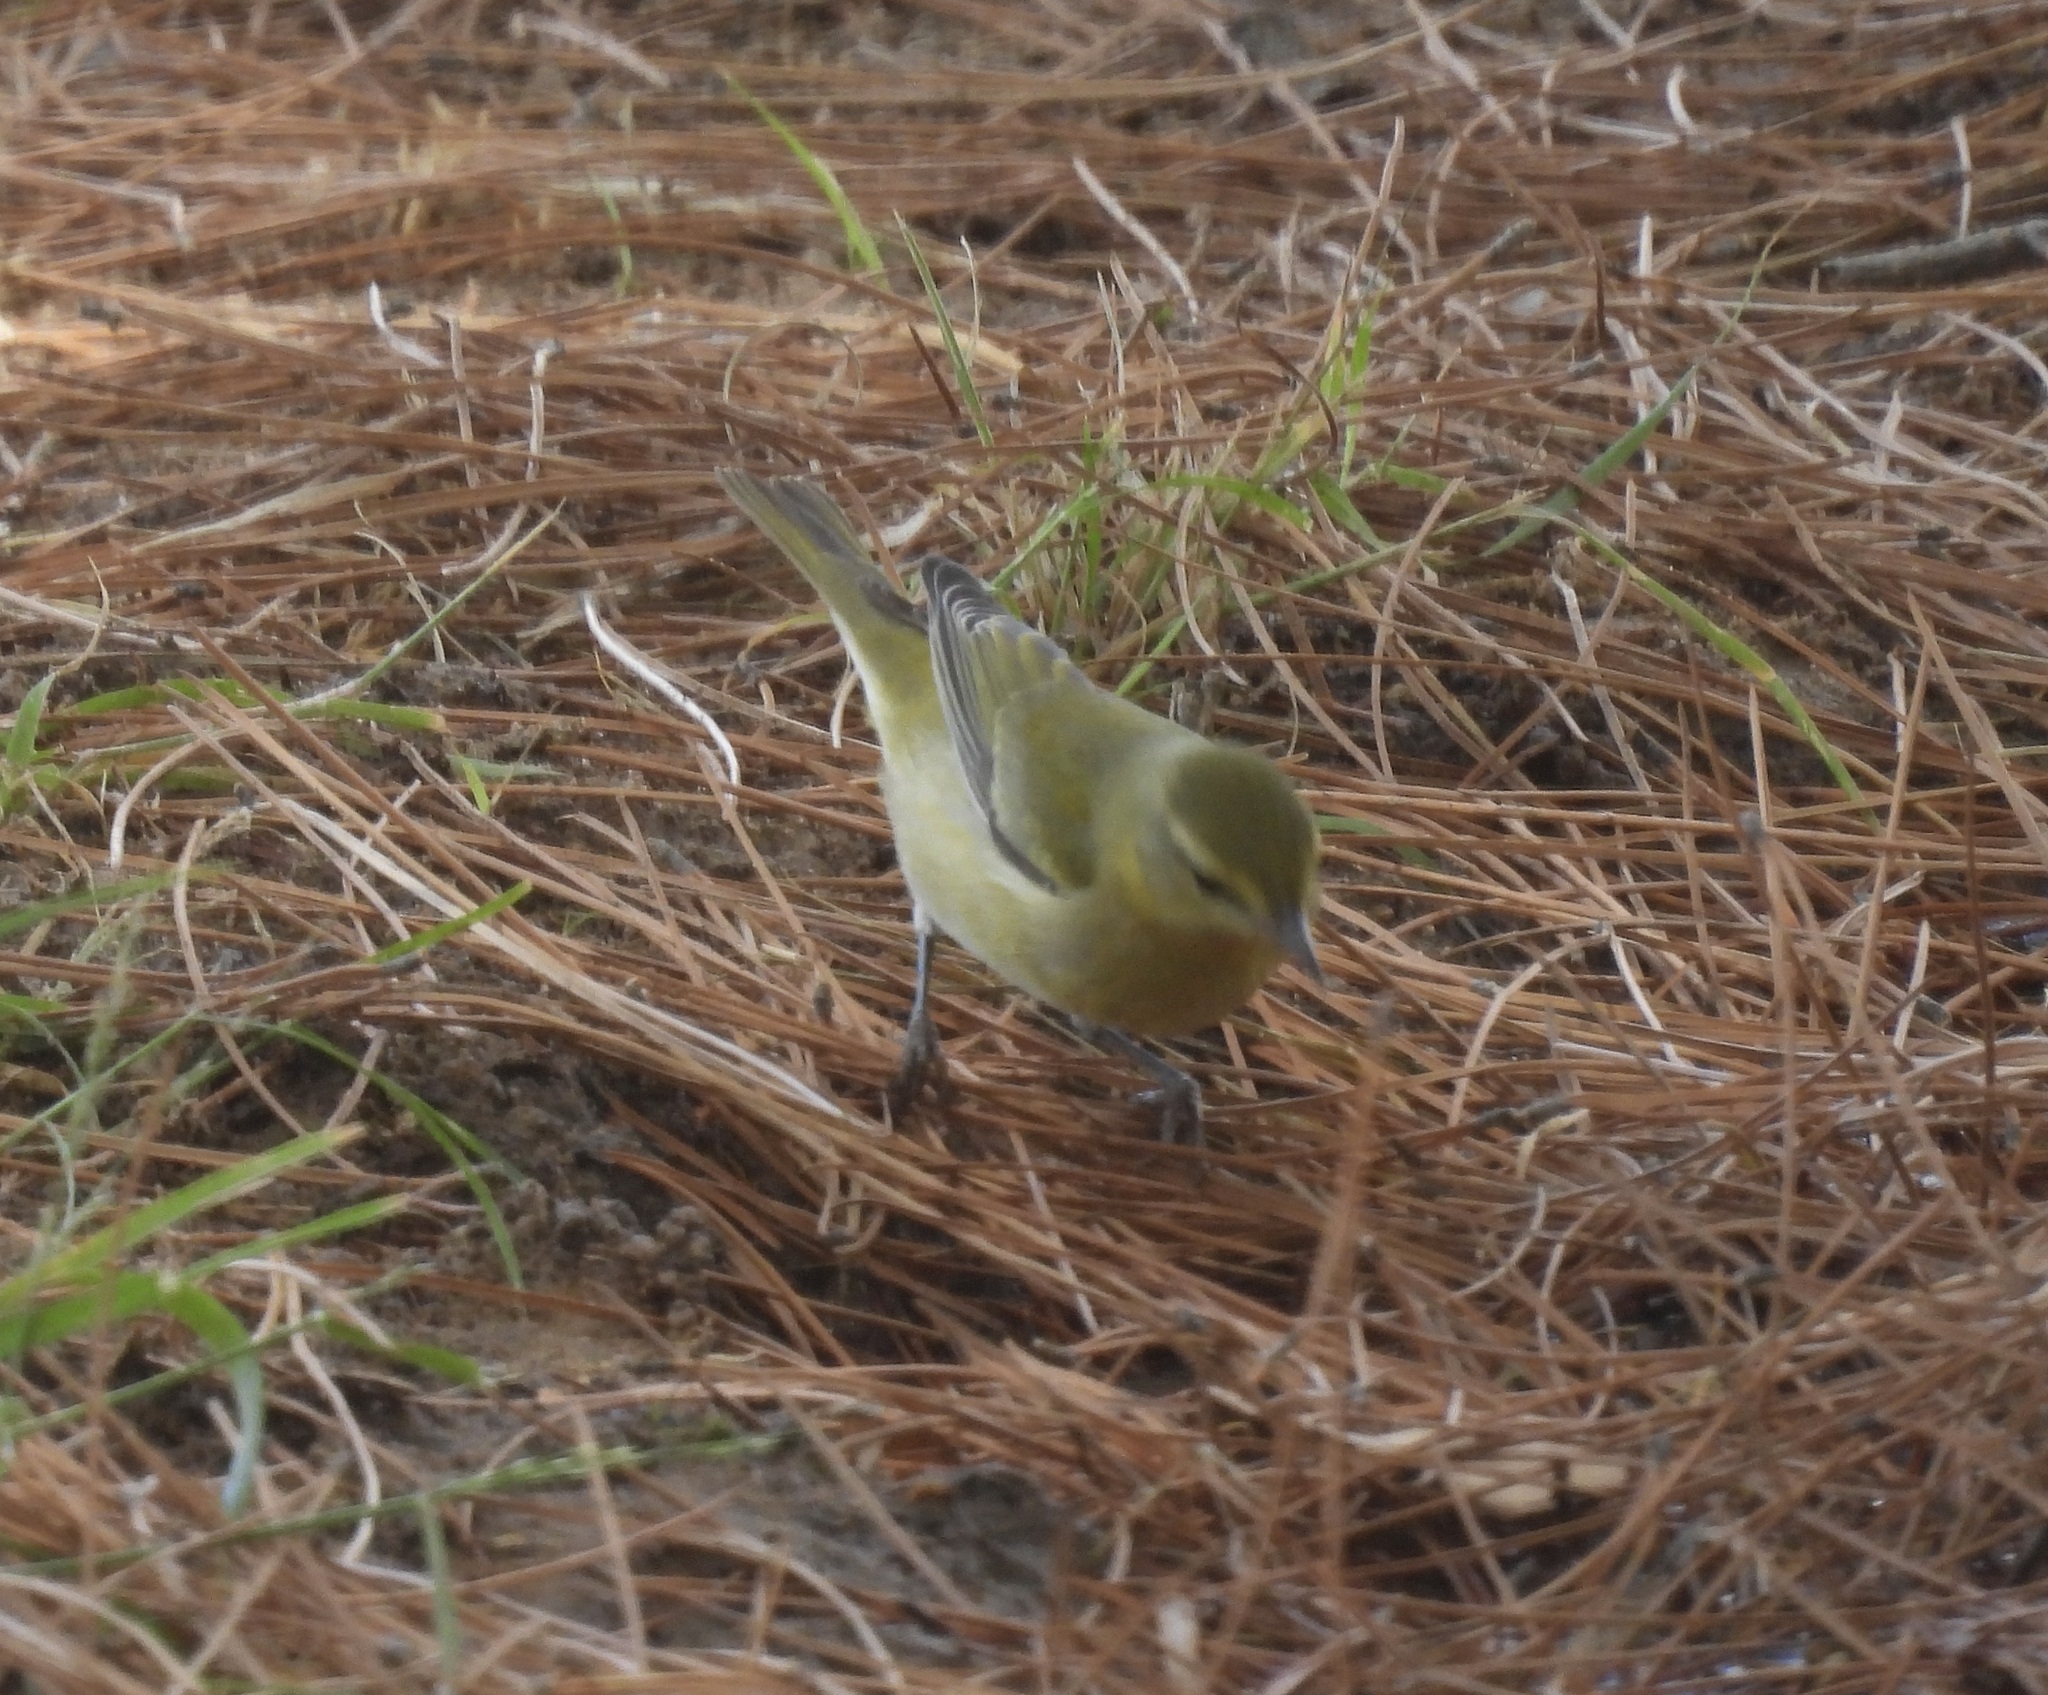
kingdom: Animalia
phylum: Chordata
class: Aves
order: Passeriformes
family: Parulidae
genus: Leiothlypis
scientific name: Leiothlypis peregrina
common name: Tennessee warbler
